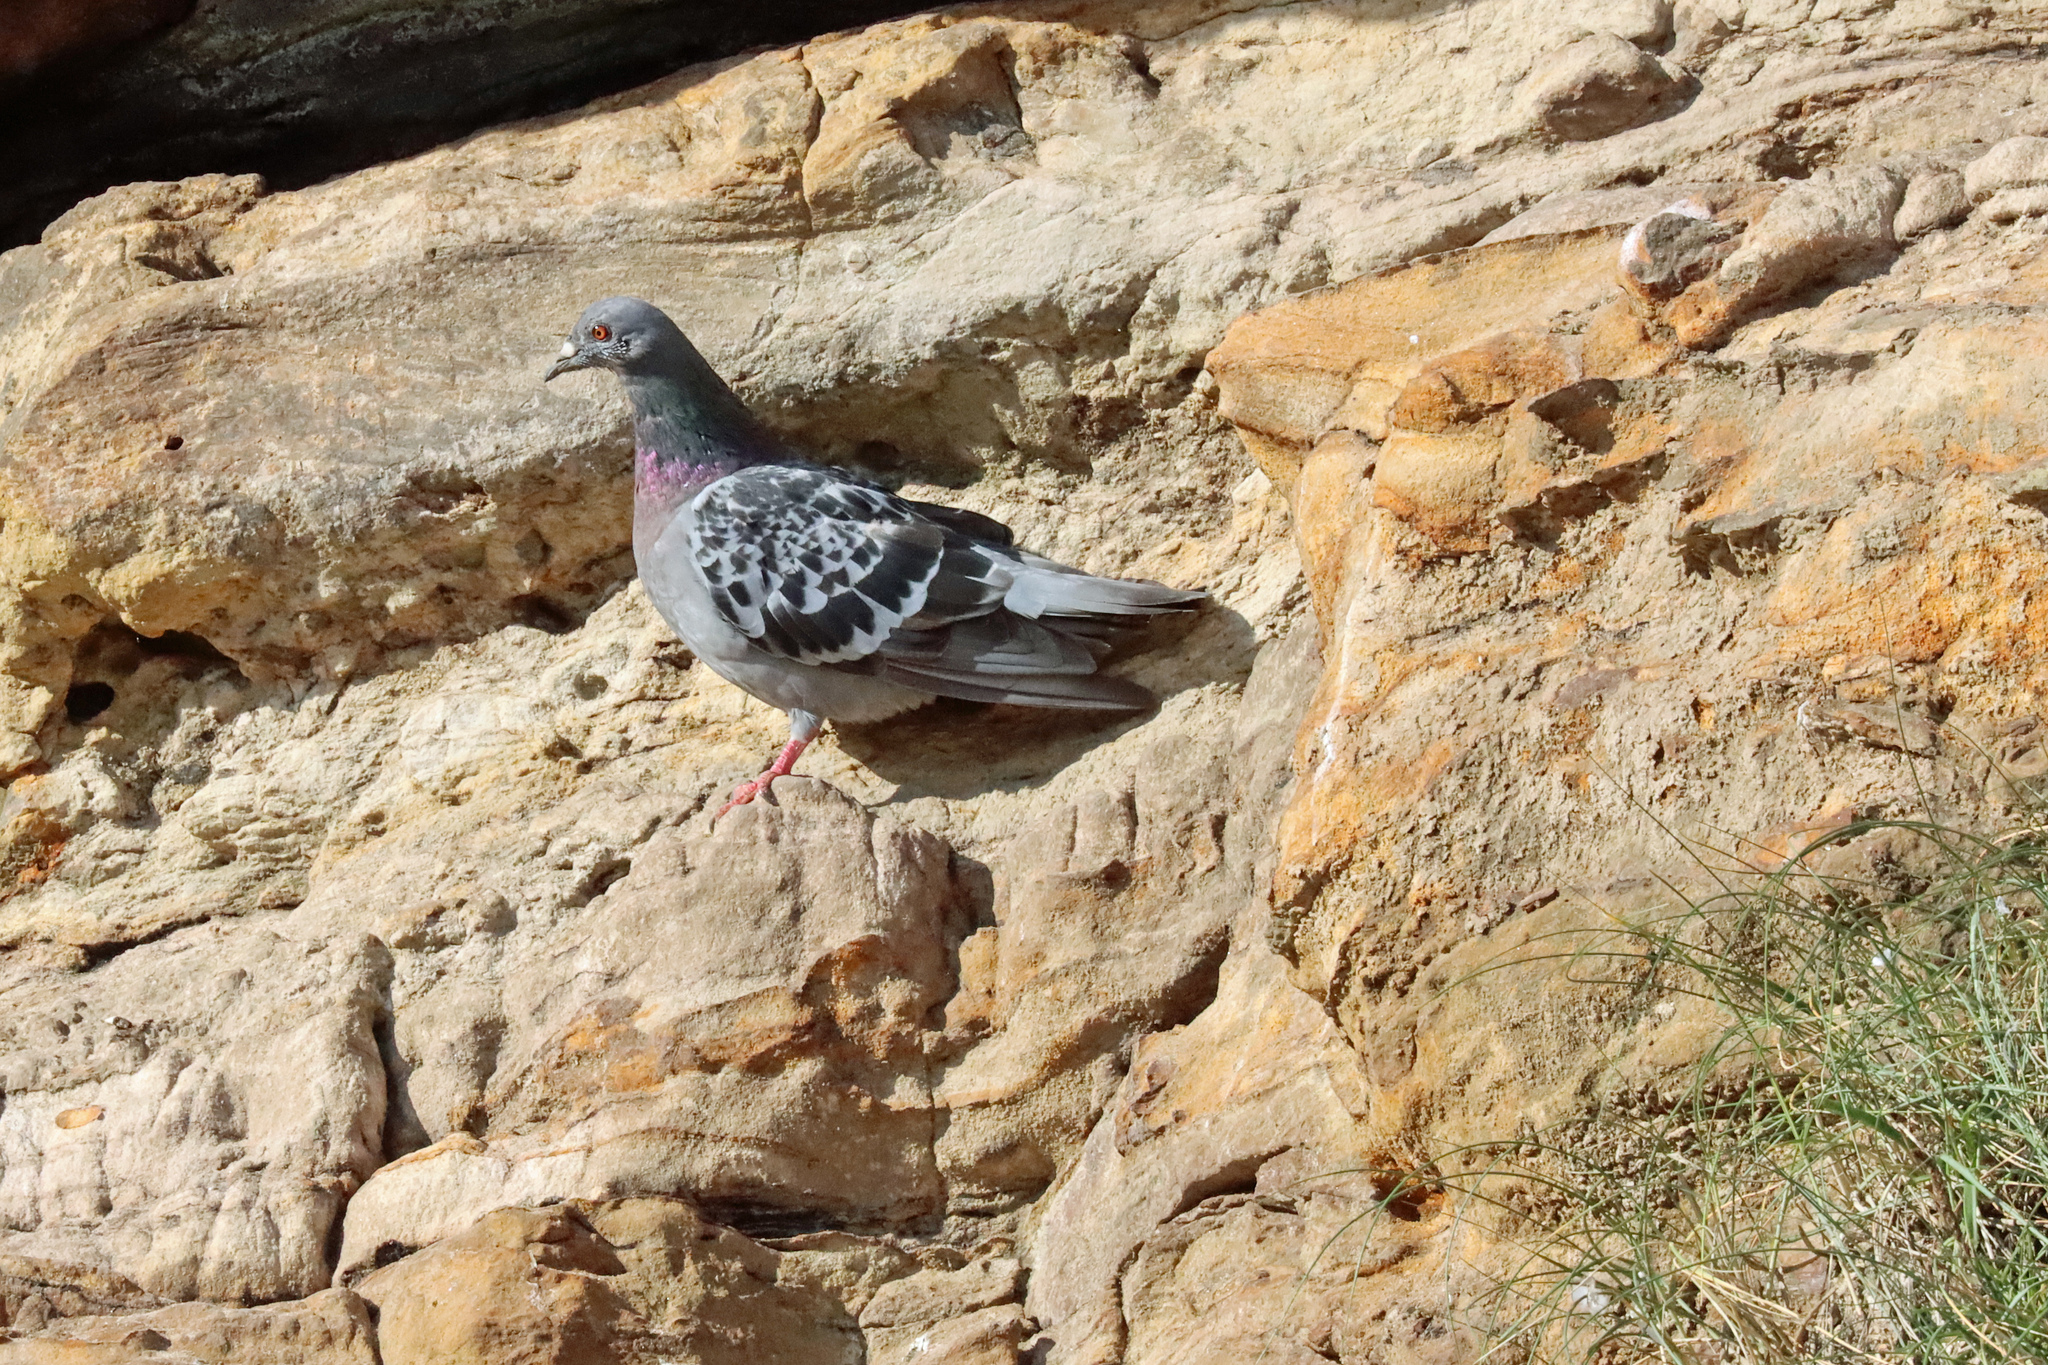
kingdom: Animalia
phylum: Chordata
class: Aves
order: Columbiformes
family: Columbidae
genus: Columba
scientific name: Columba livia
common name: Rock pigeon
